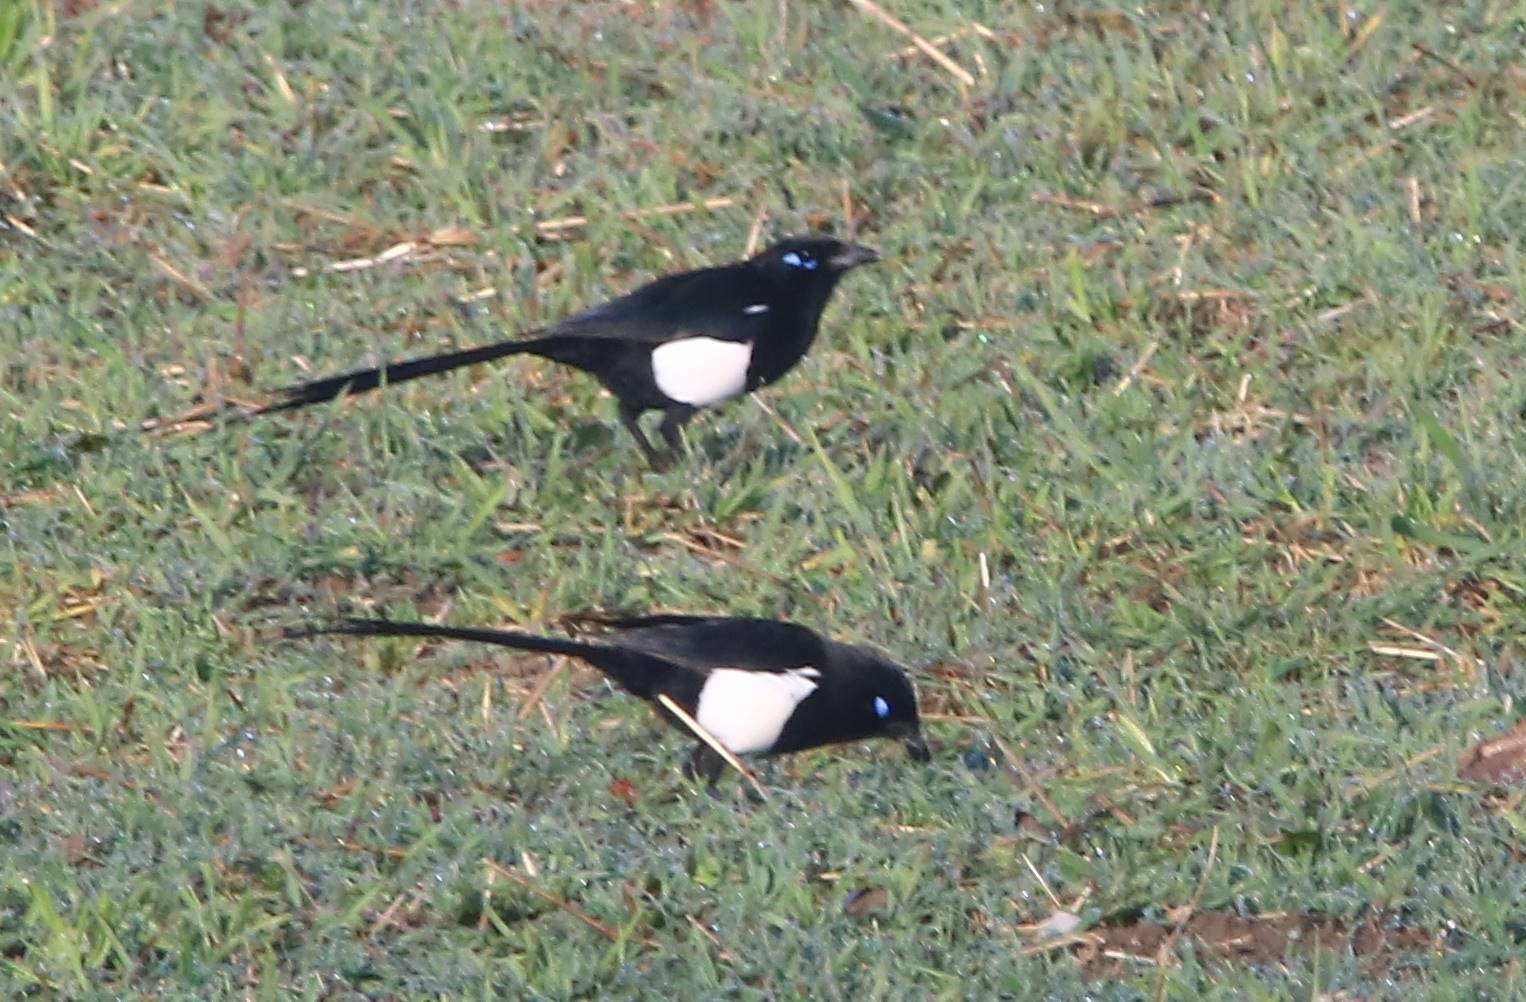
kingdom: Animalia
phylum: Chordata
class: Aves
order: Passeriformes
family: Corvidae
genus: Pica
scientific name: Pica mauritanica
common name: Maghreb magpie
